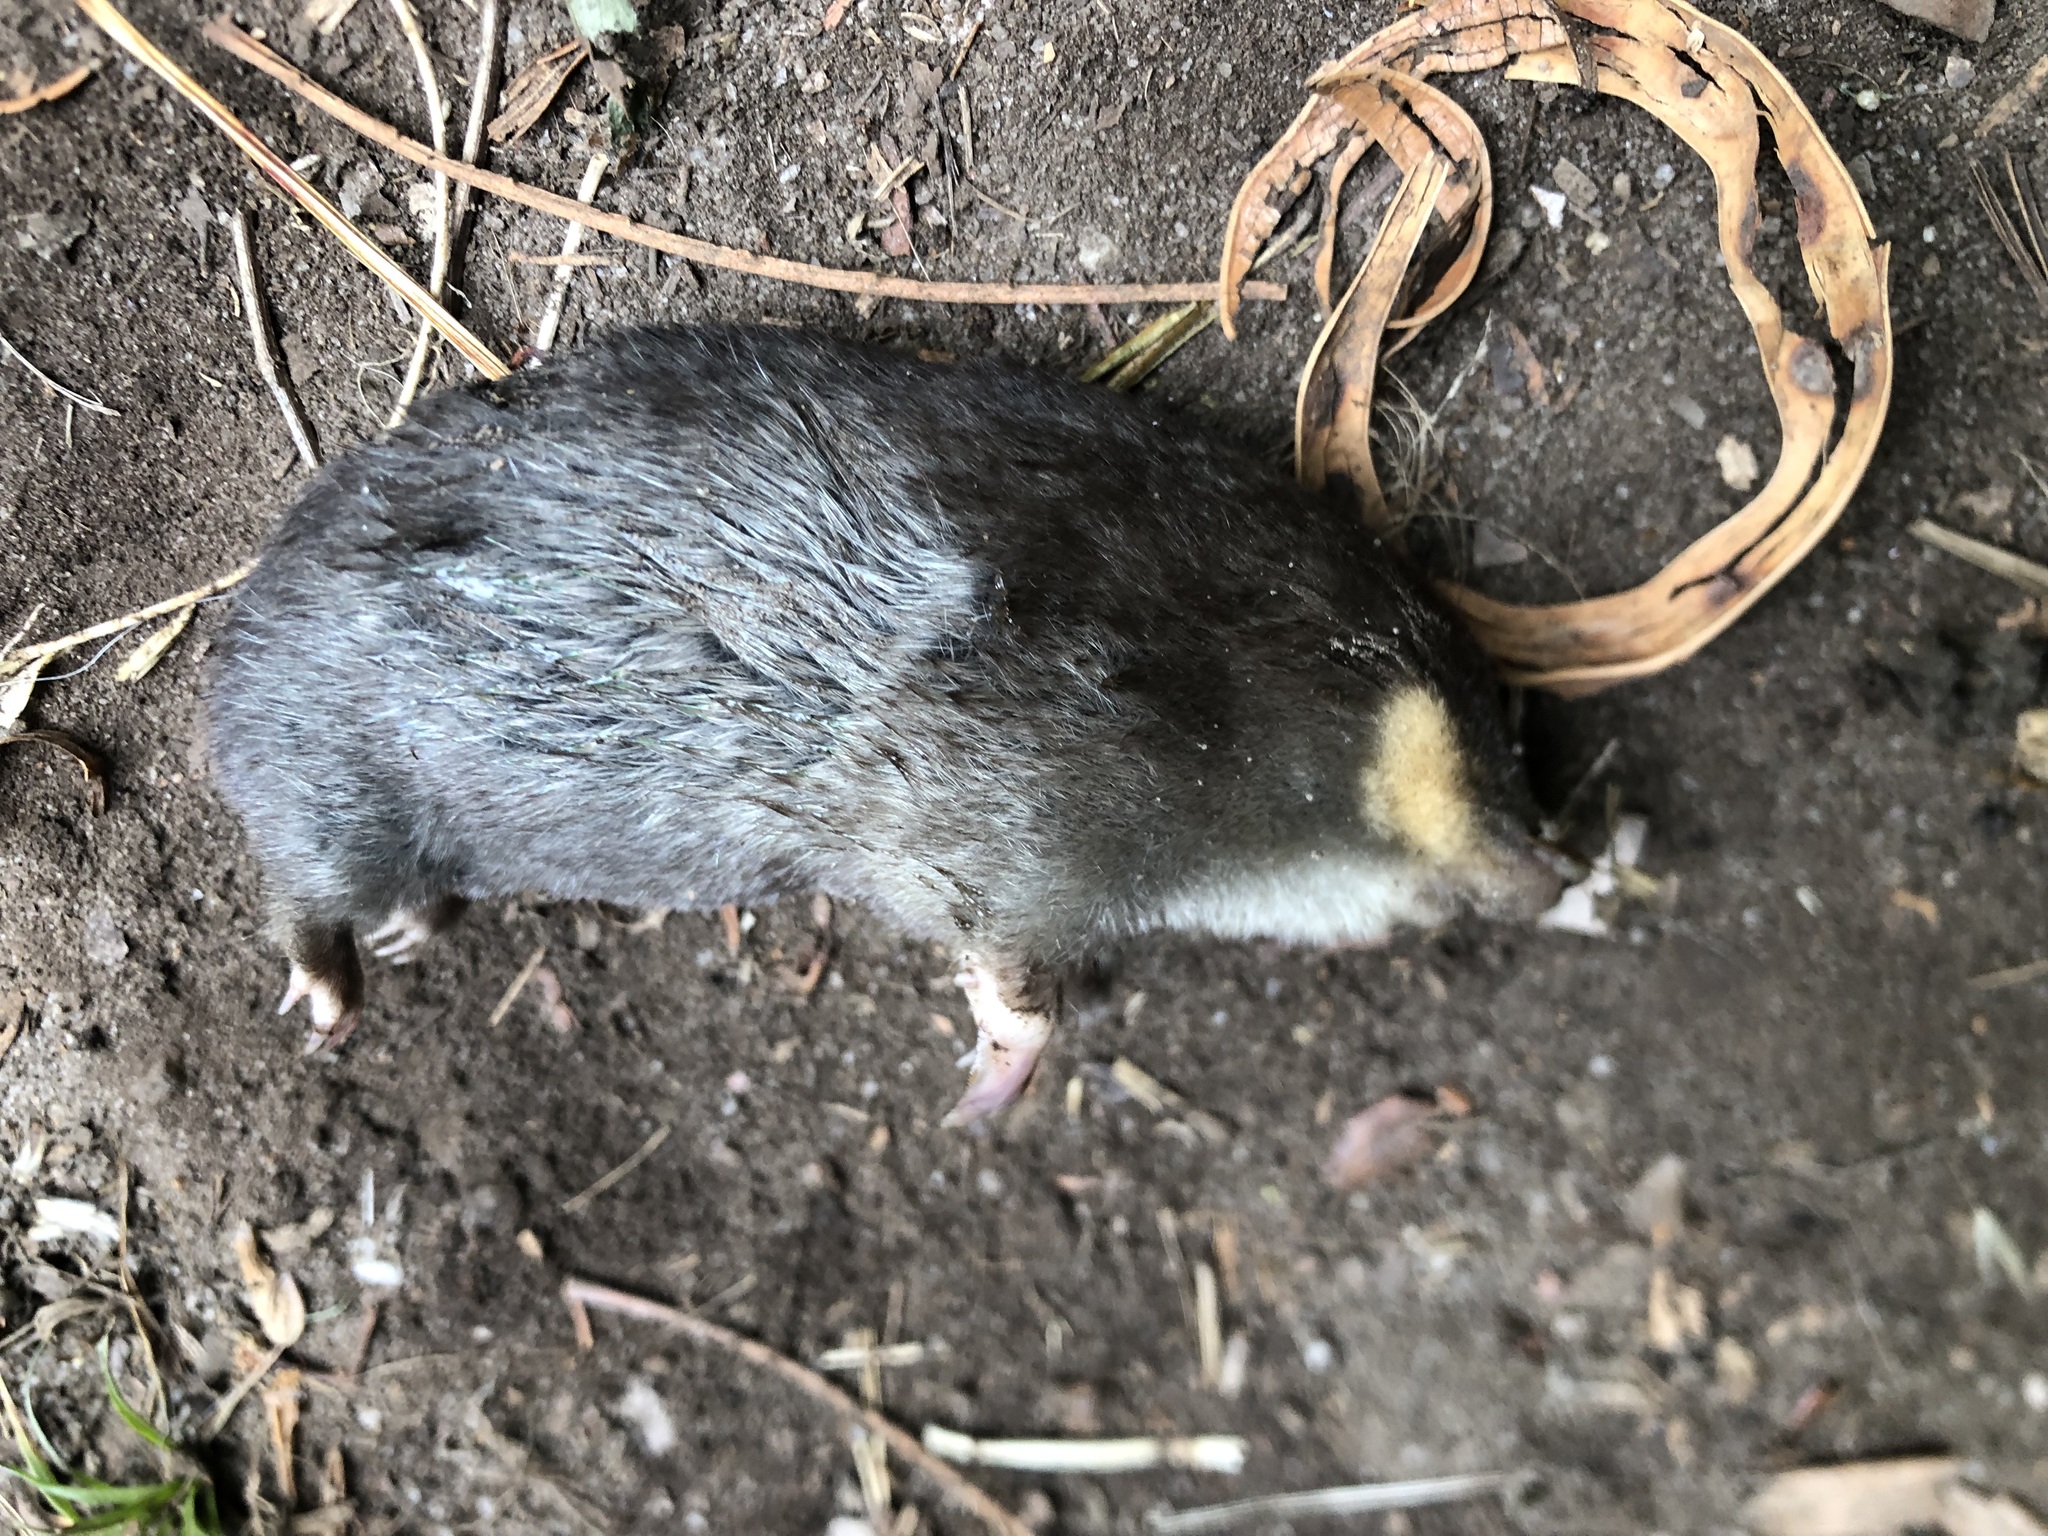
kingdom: Animalia
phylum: Chordata
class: Mammalia
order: Afrosoricida
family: Chrysochloridae
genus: Chrysochloris
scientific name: Chrysochloris asiatica
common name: Cape golden mole
